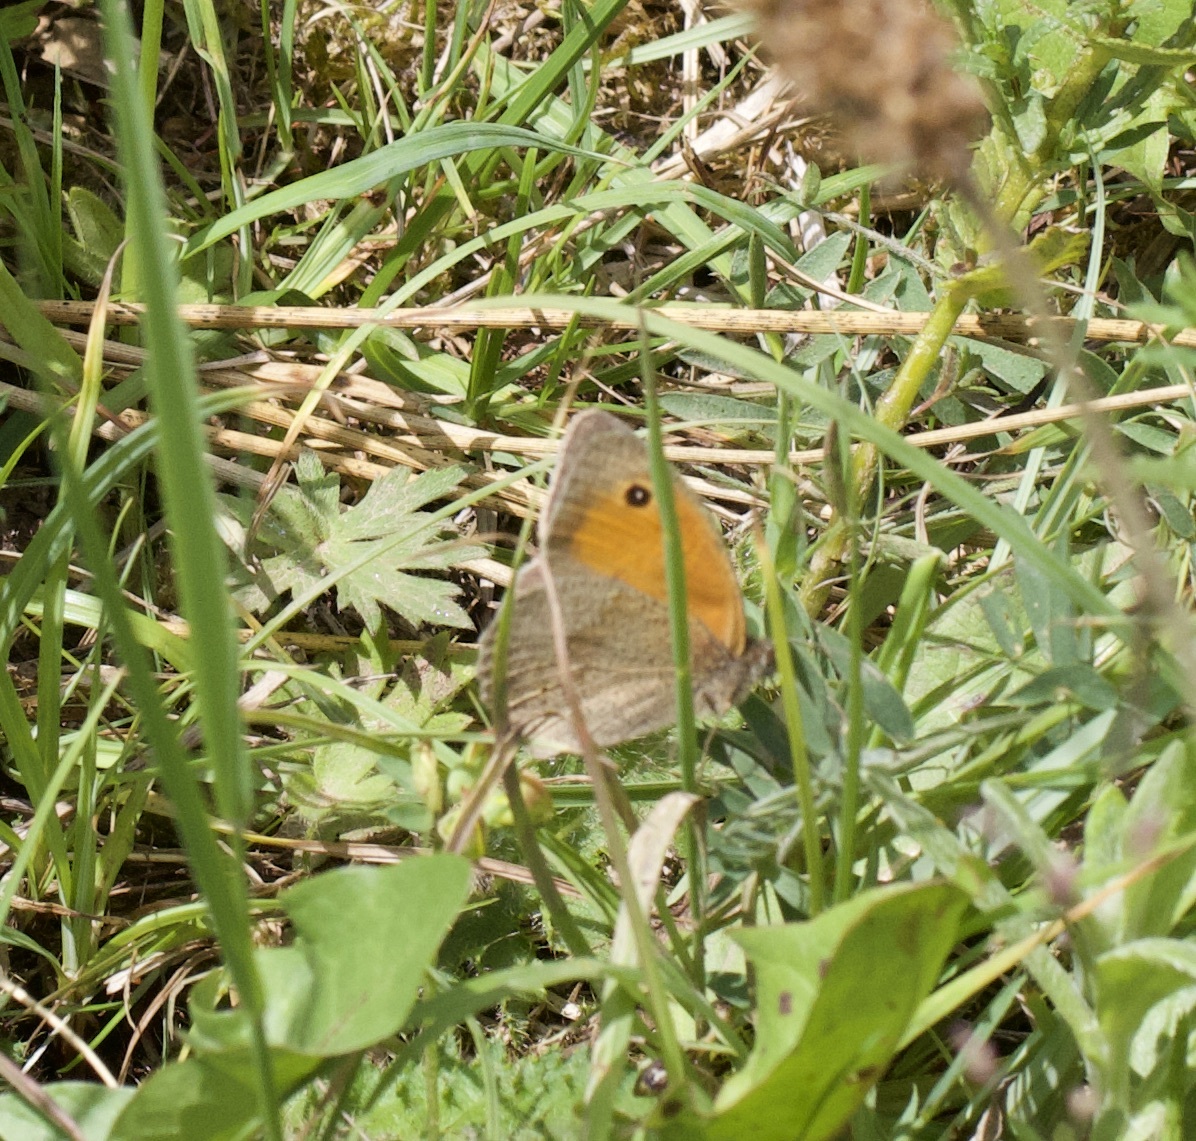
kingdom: Animalia
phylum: Arthropoda
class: Insecta
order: Lepidoptera
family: Nymphalidae
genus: Maniola
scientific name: Maniola jurtina
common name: Meadow brown
